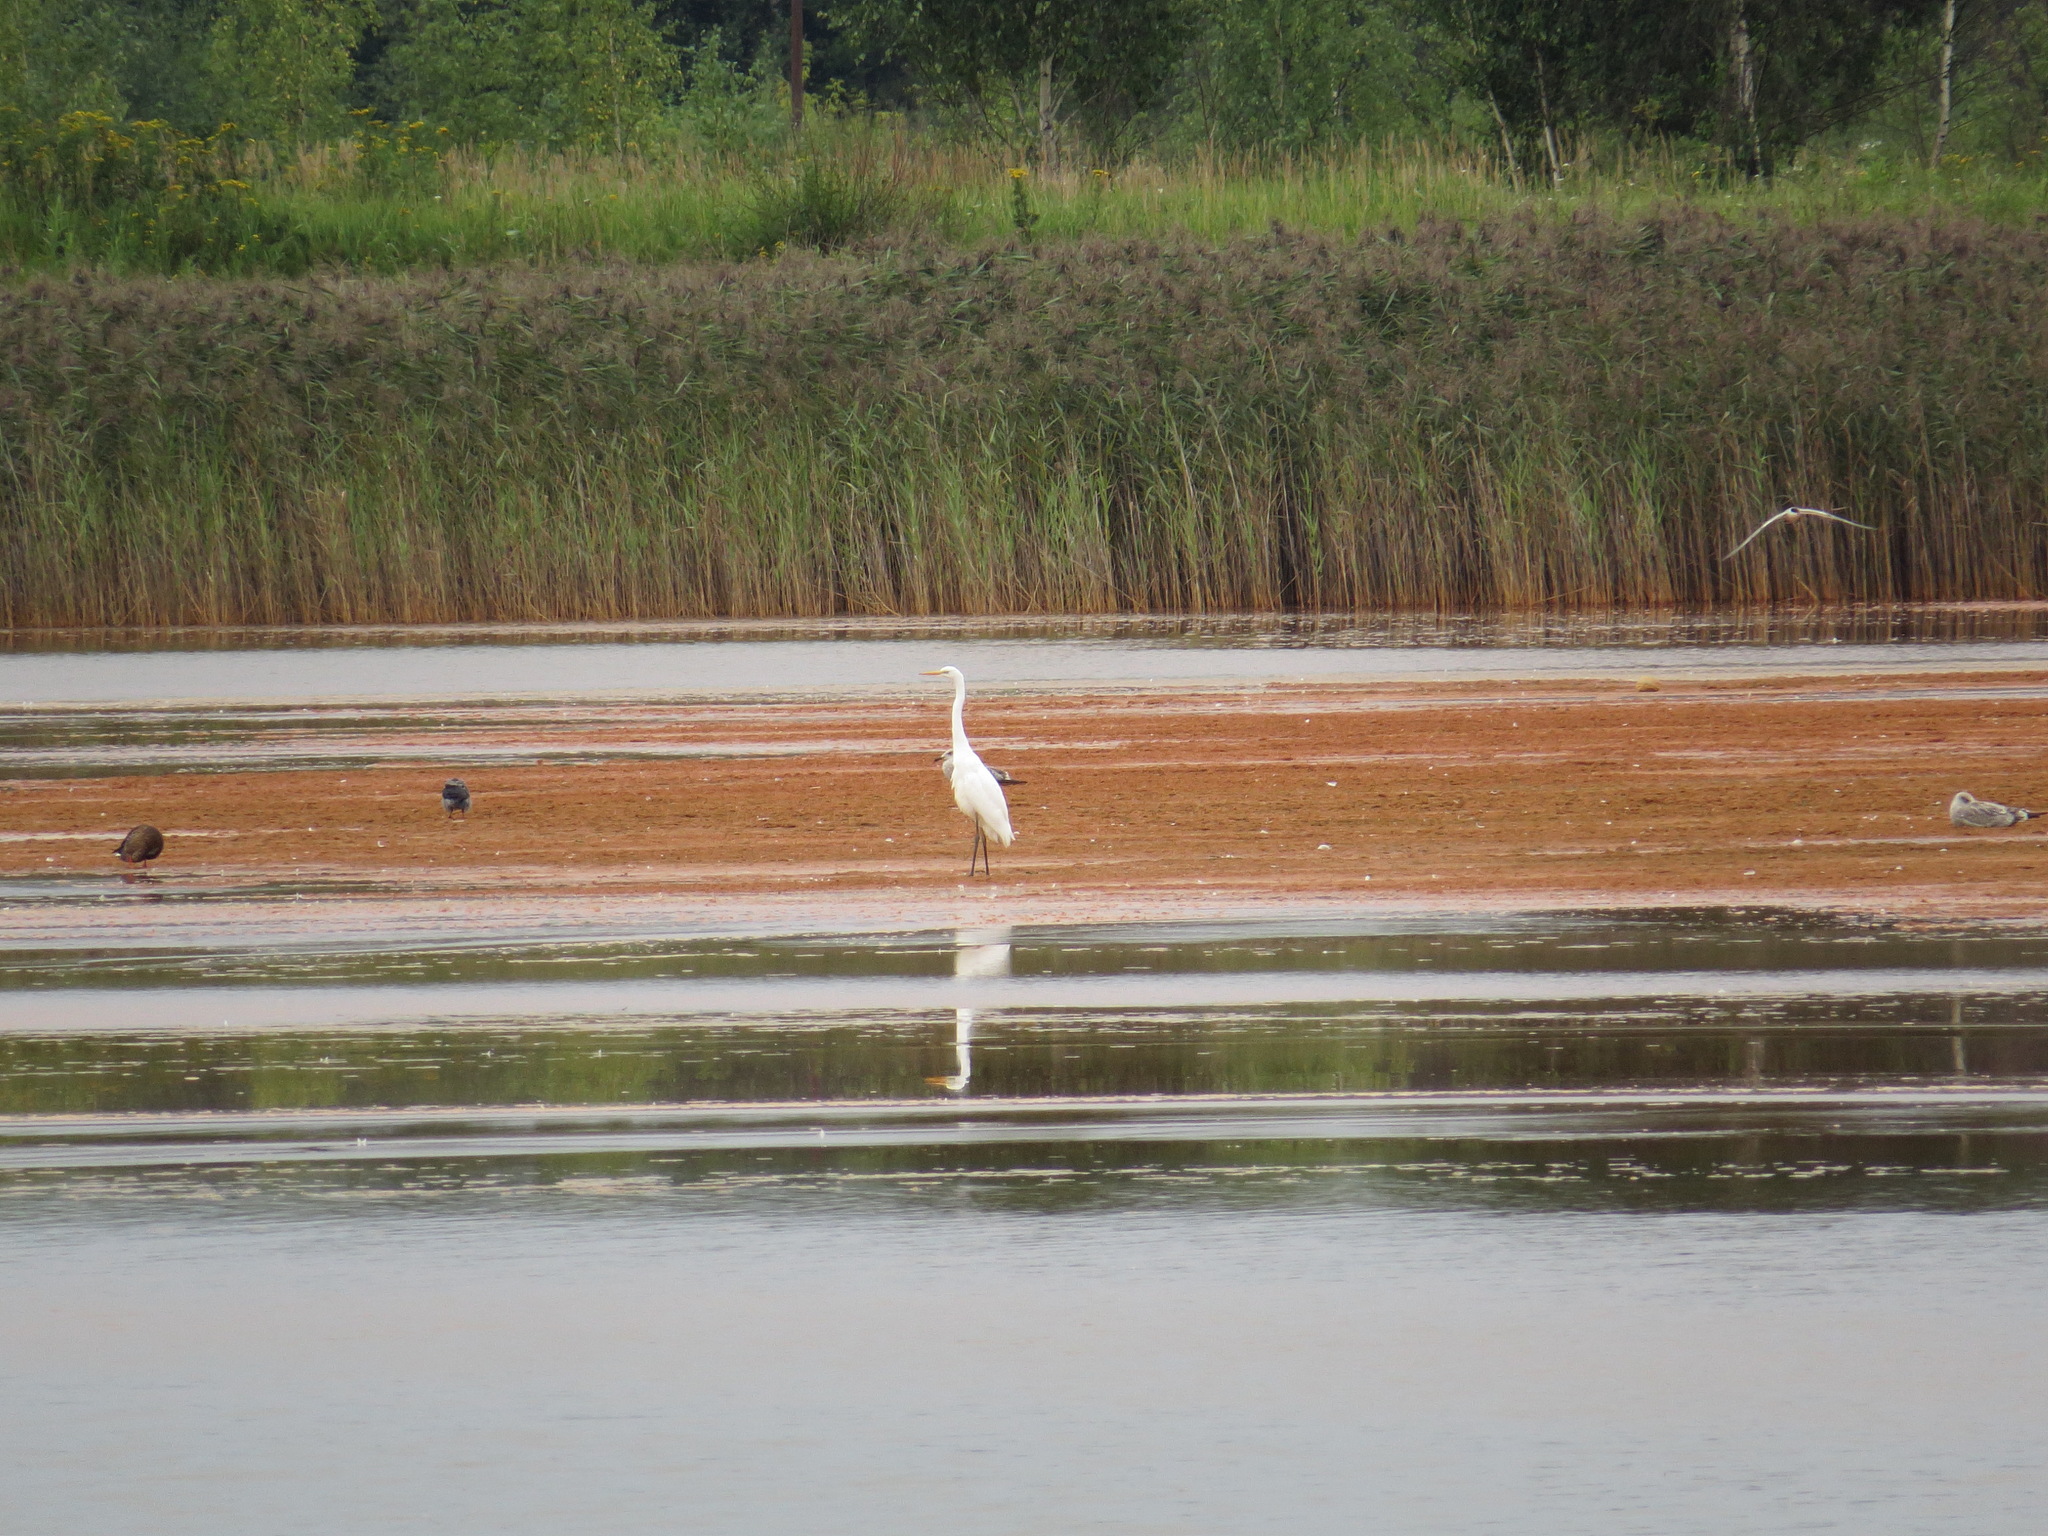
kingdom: Animalia
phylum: Chordata
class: Aves
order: Pelecaniformes
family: Ardeidae
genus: Ardea
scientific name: Ardea alba
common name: Great egret
